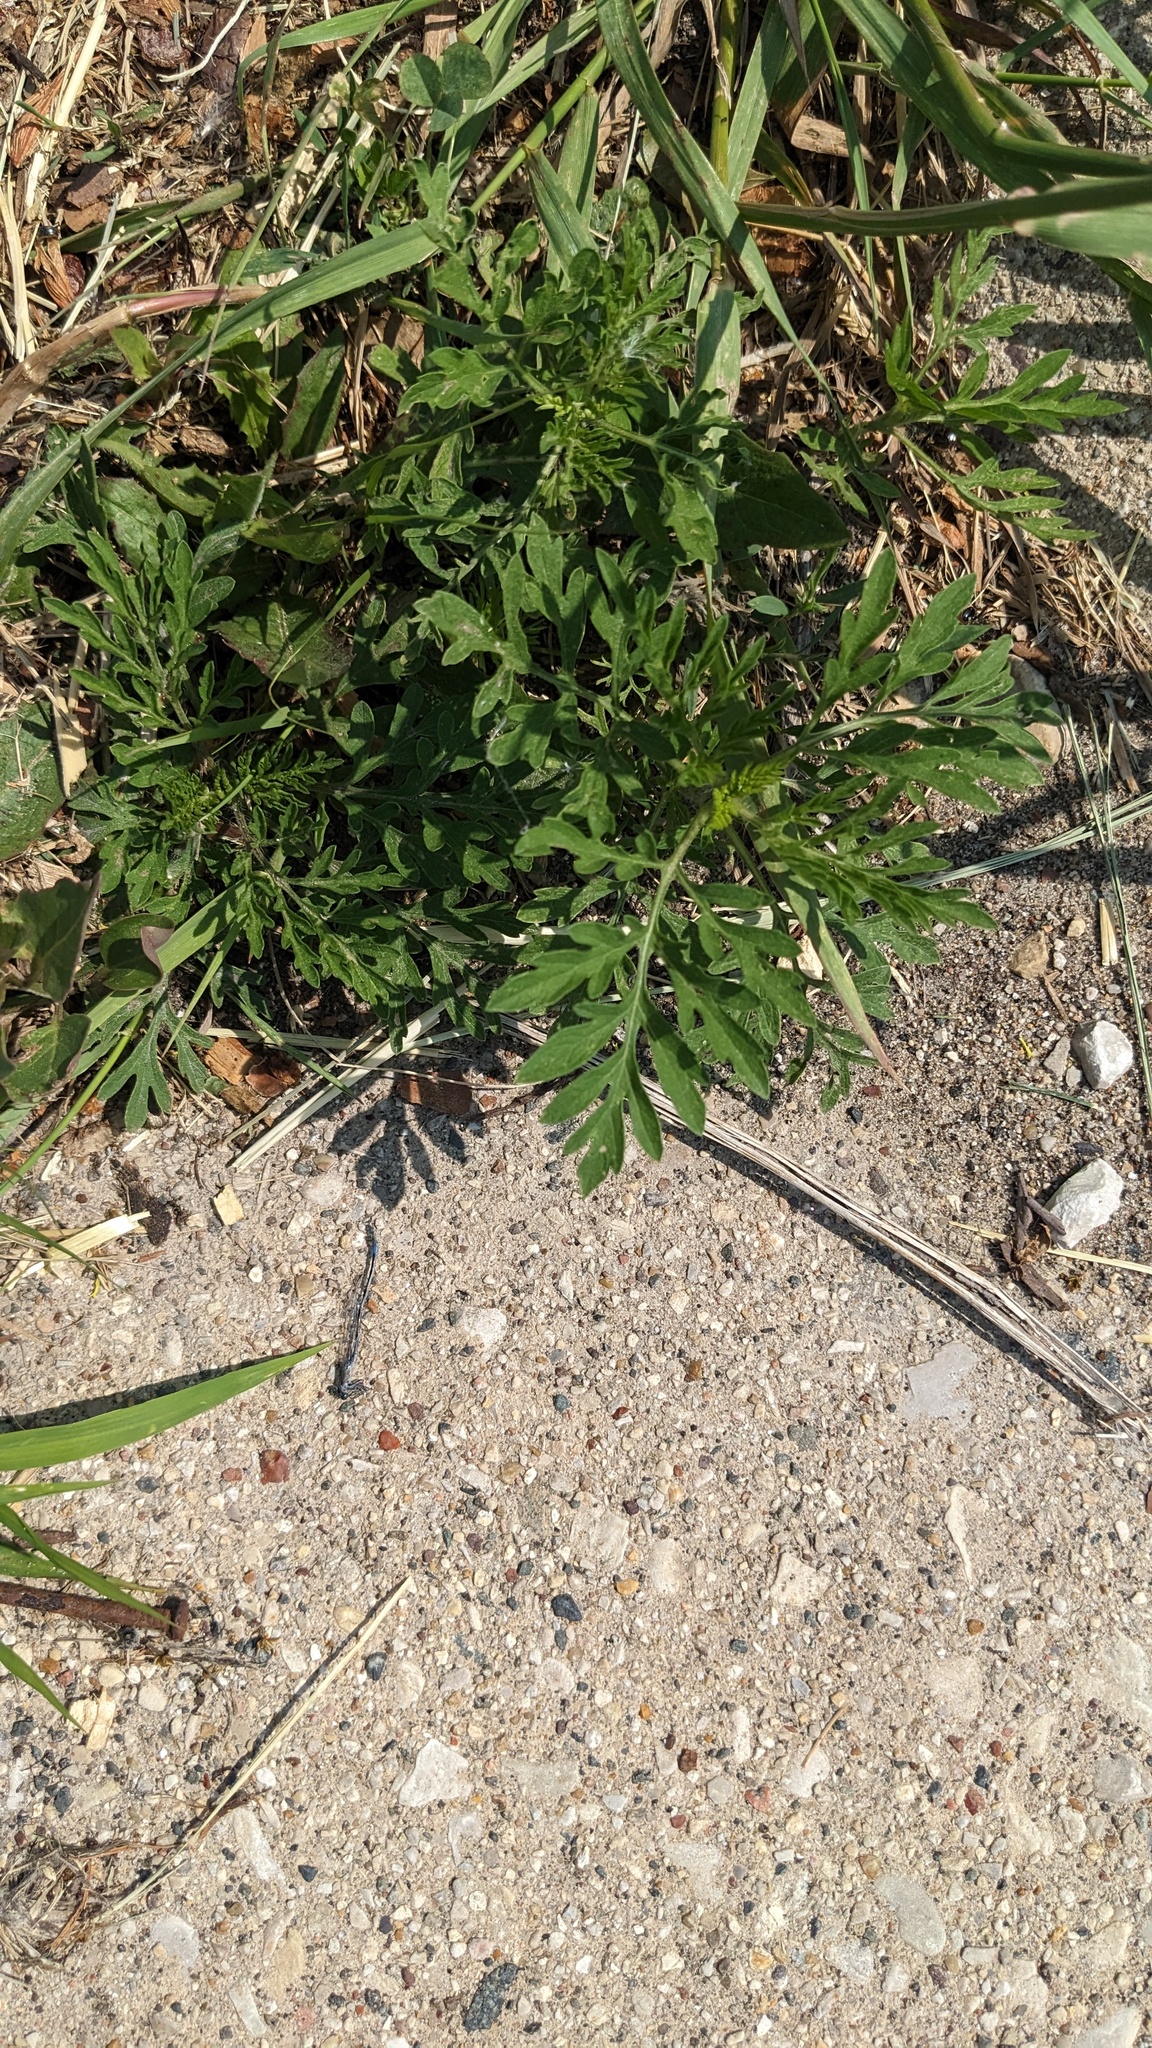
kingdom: Plantae
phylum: Tracheophyta
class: Magnoliopsida
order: Asterales
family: Asteraceae
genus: Ambrosia
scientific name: Ambrosia artemisiifolia
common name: Annual ragweed
